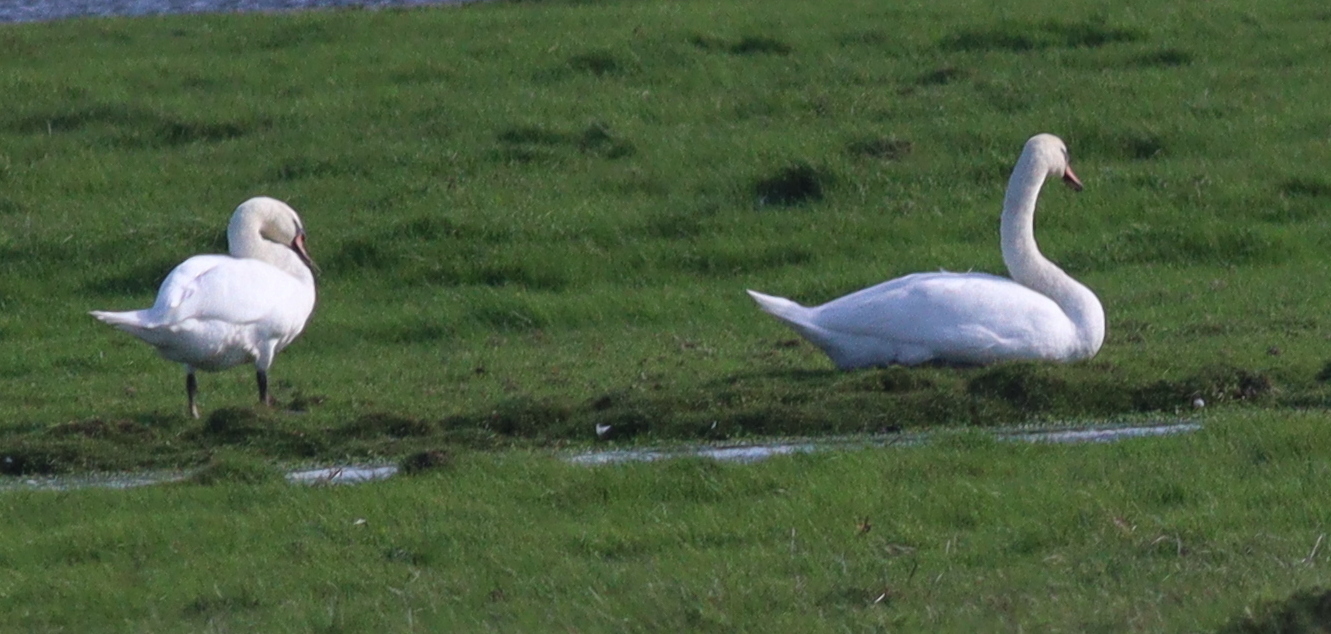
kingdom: Animalia
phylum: Chordata
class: Aves
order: Anseriformes
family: Anatidae
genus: Cygnus
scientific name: Cygnus olor
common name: Mute swan
